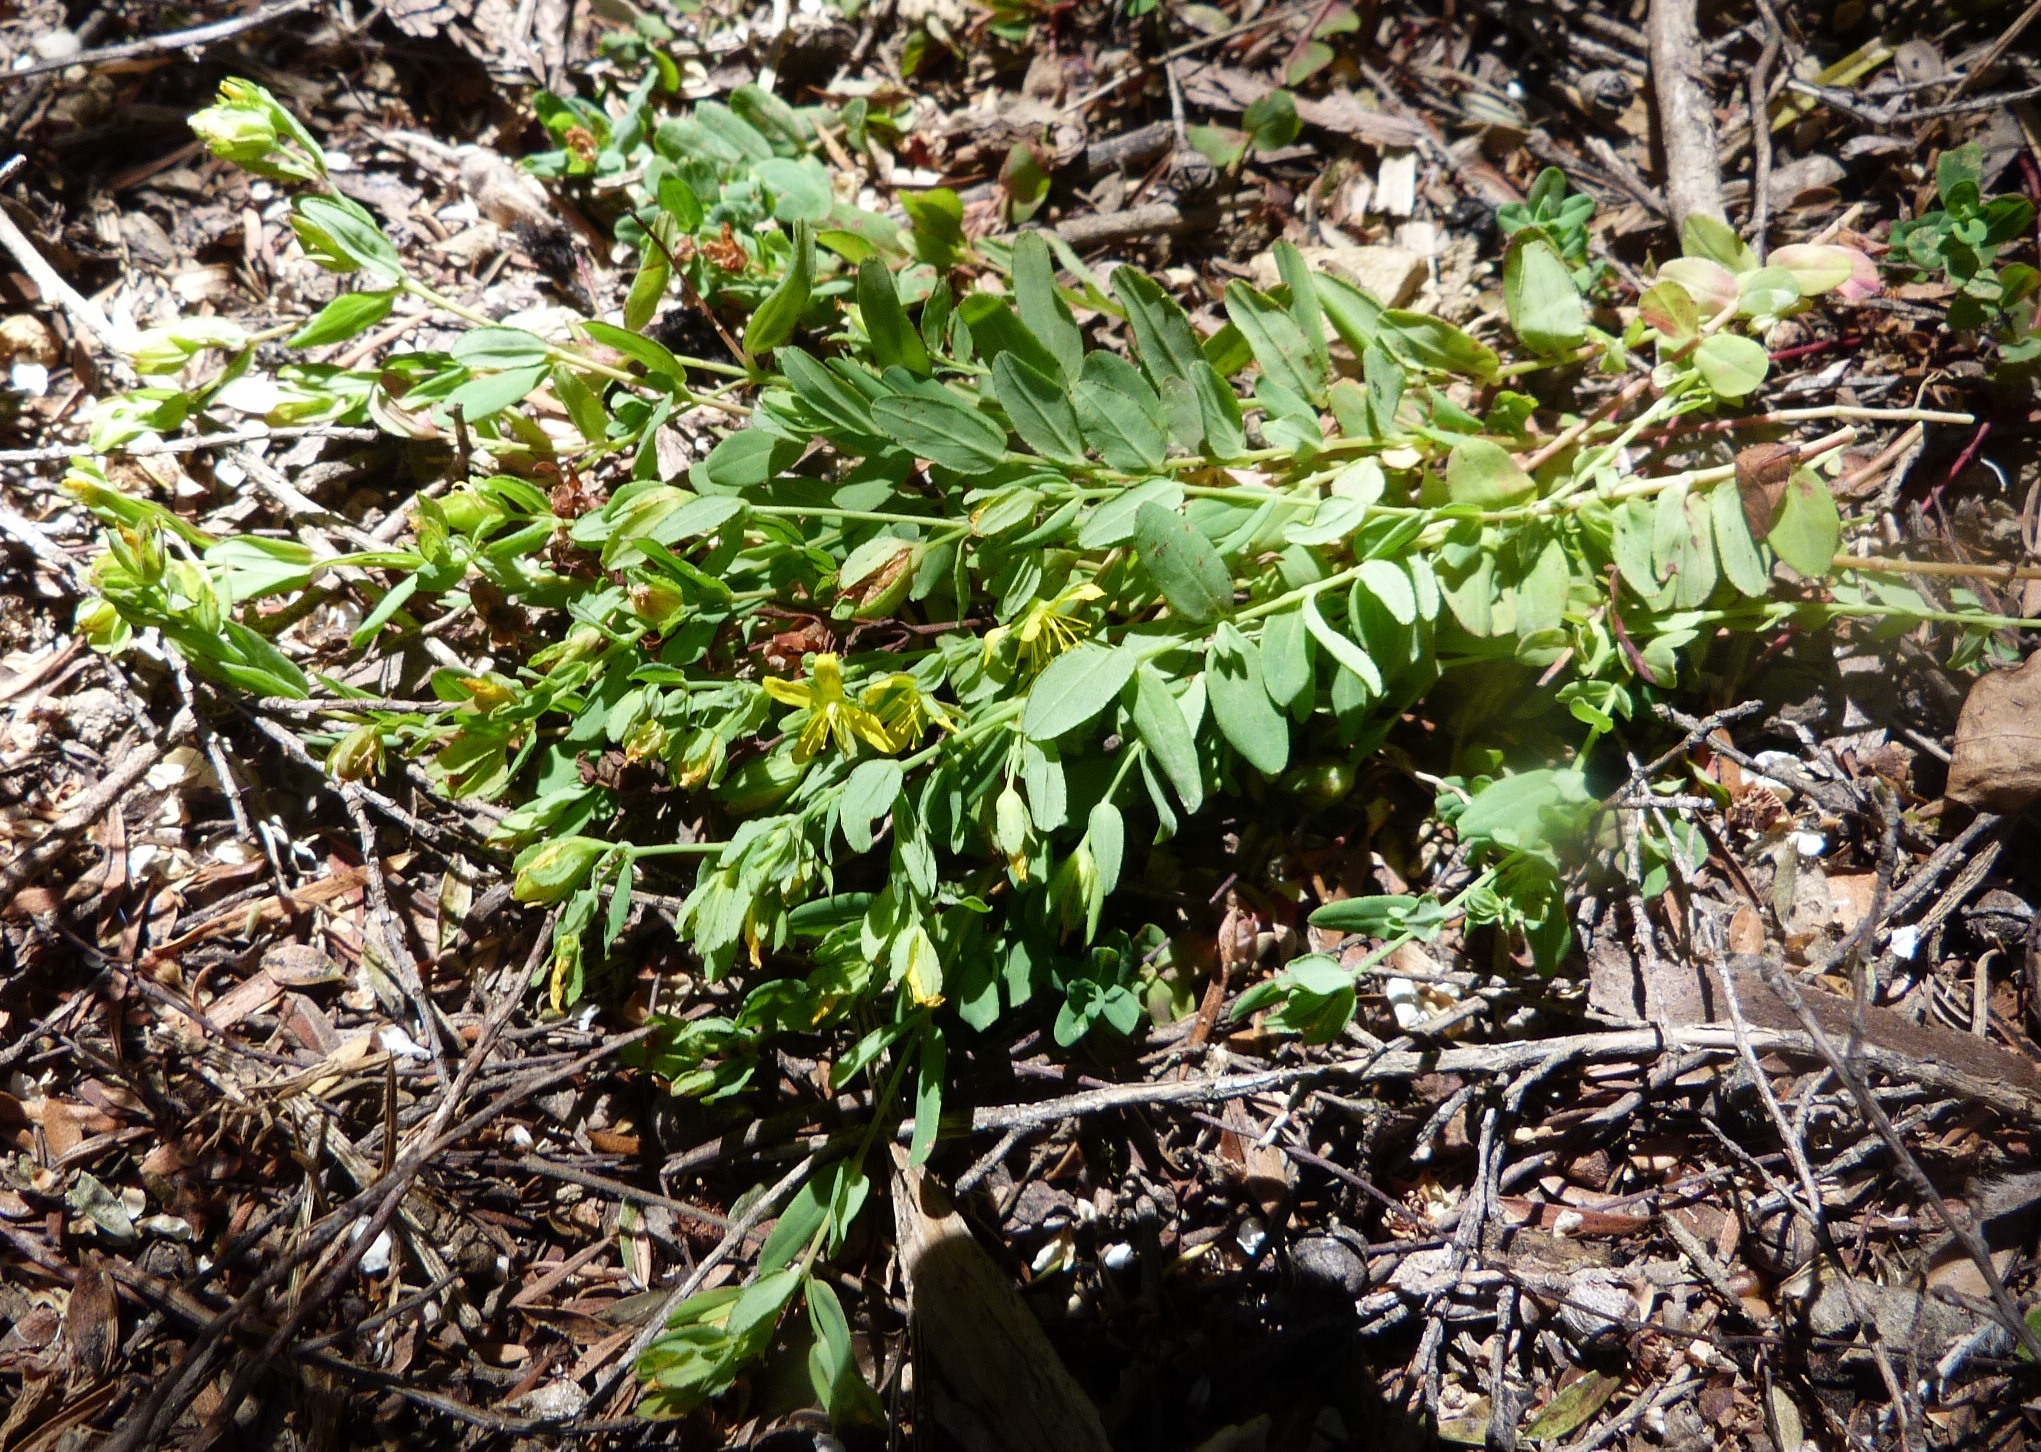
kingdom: Plantae
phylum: Tracheophyta
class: Magnoliopsida
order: Malpighiales
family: Hypericaceae
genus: Hypericum
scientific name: Hypericum humifusum
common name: Trailing st. john's-wort
